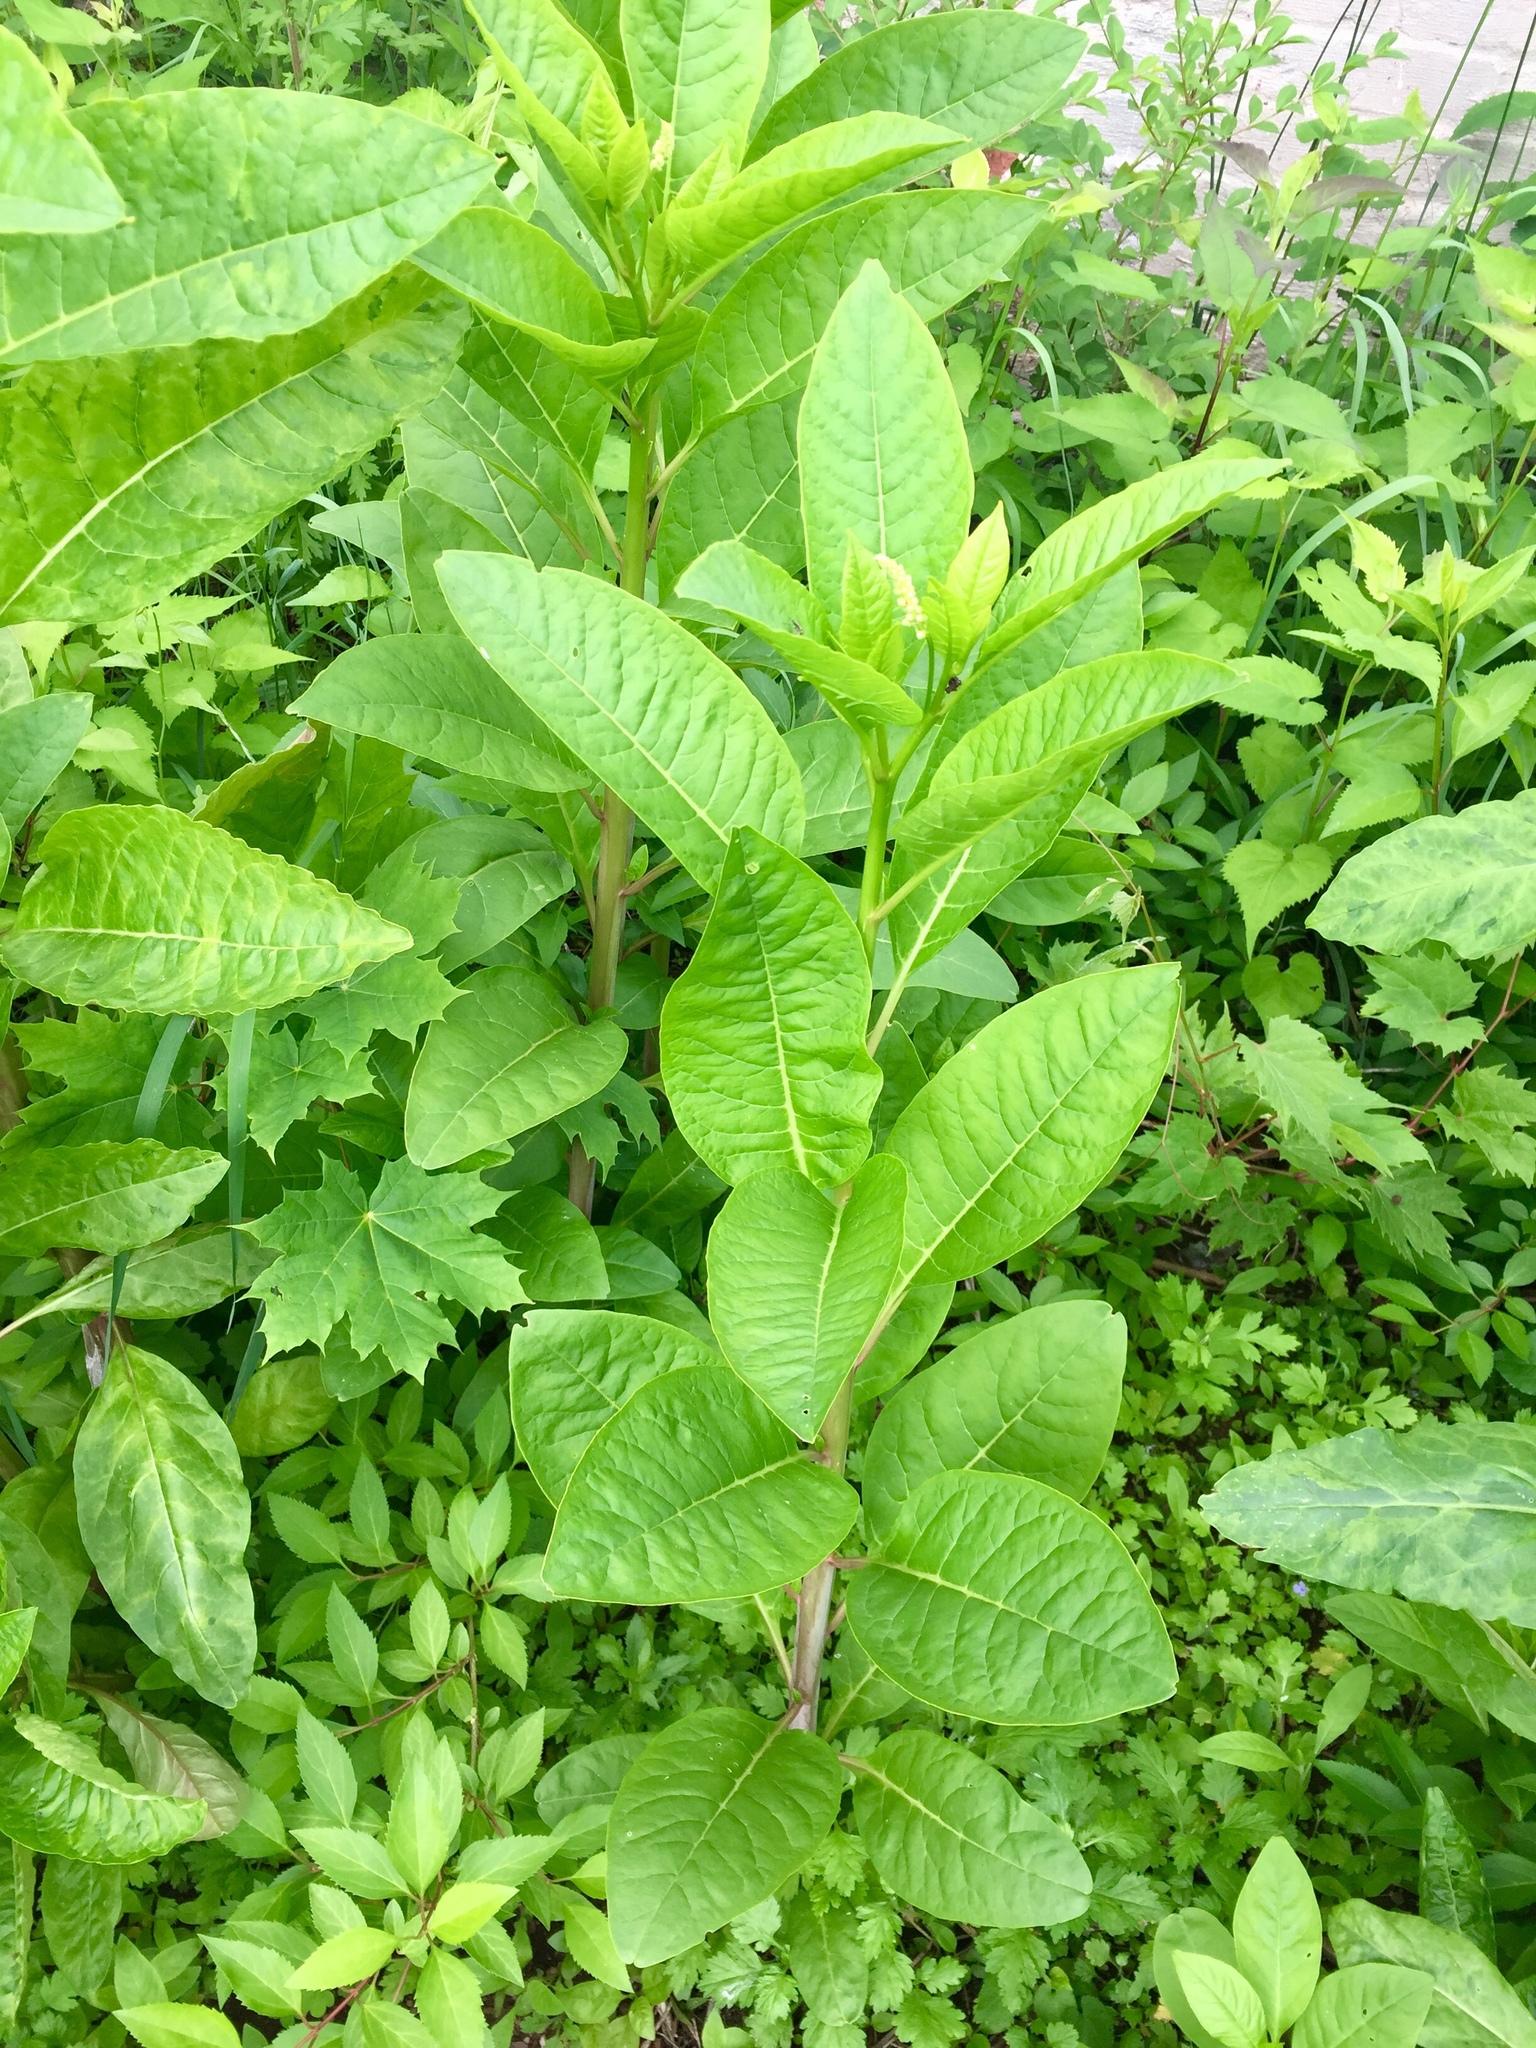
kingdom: Plantae
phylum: Tracheophyta
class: Magnoliopsida
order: Caryophyllales
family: Phytolaccaceae
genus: Phytolacca
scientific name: Phytolacca americana
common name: American pokeweed
